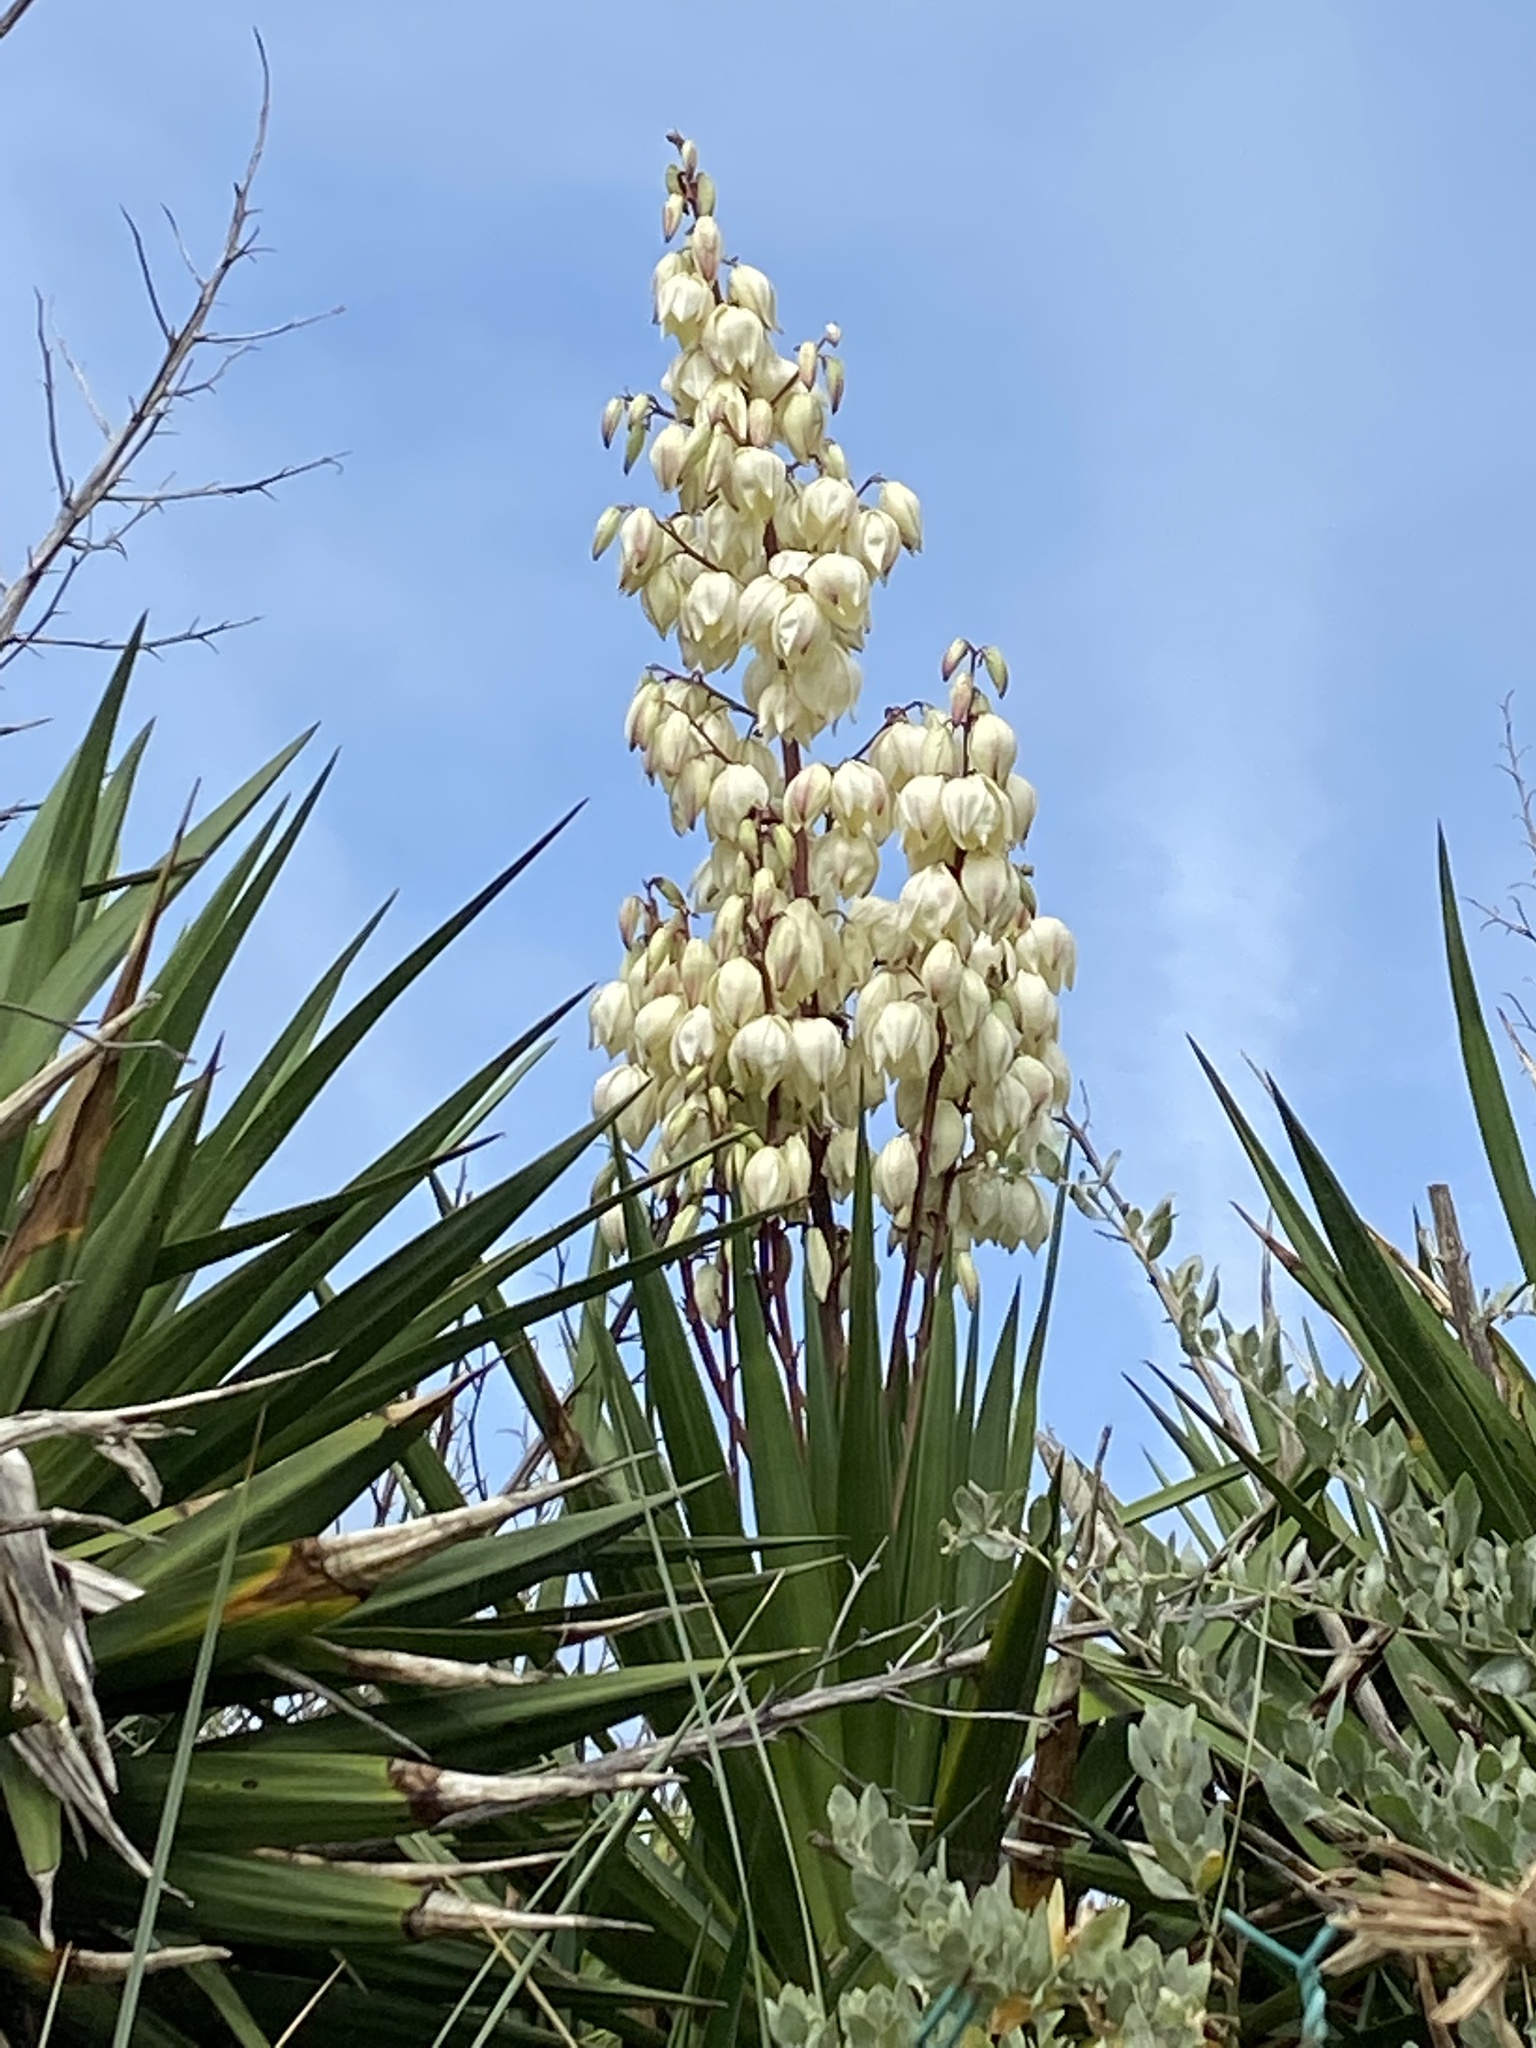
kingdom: Plantae
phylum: Tracheophyta
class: Liliopsida
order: Asparagales
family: Asparagaceae
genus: Yucca
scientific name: Yucca gloriosa
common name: Spanish-dagger
